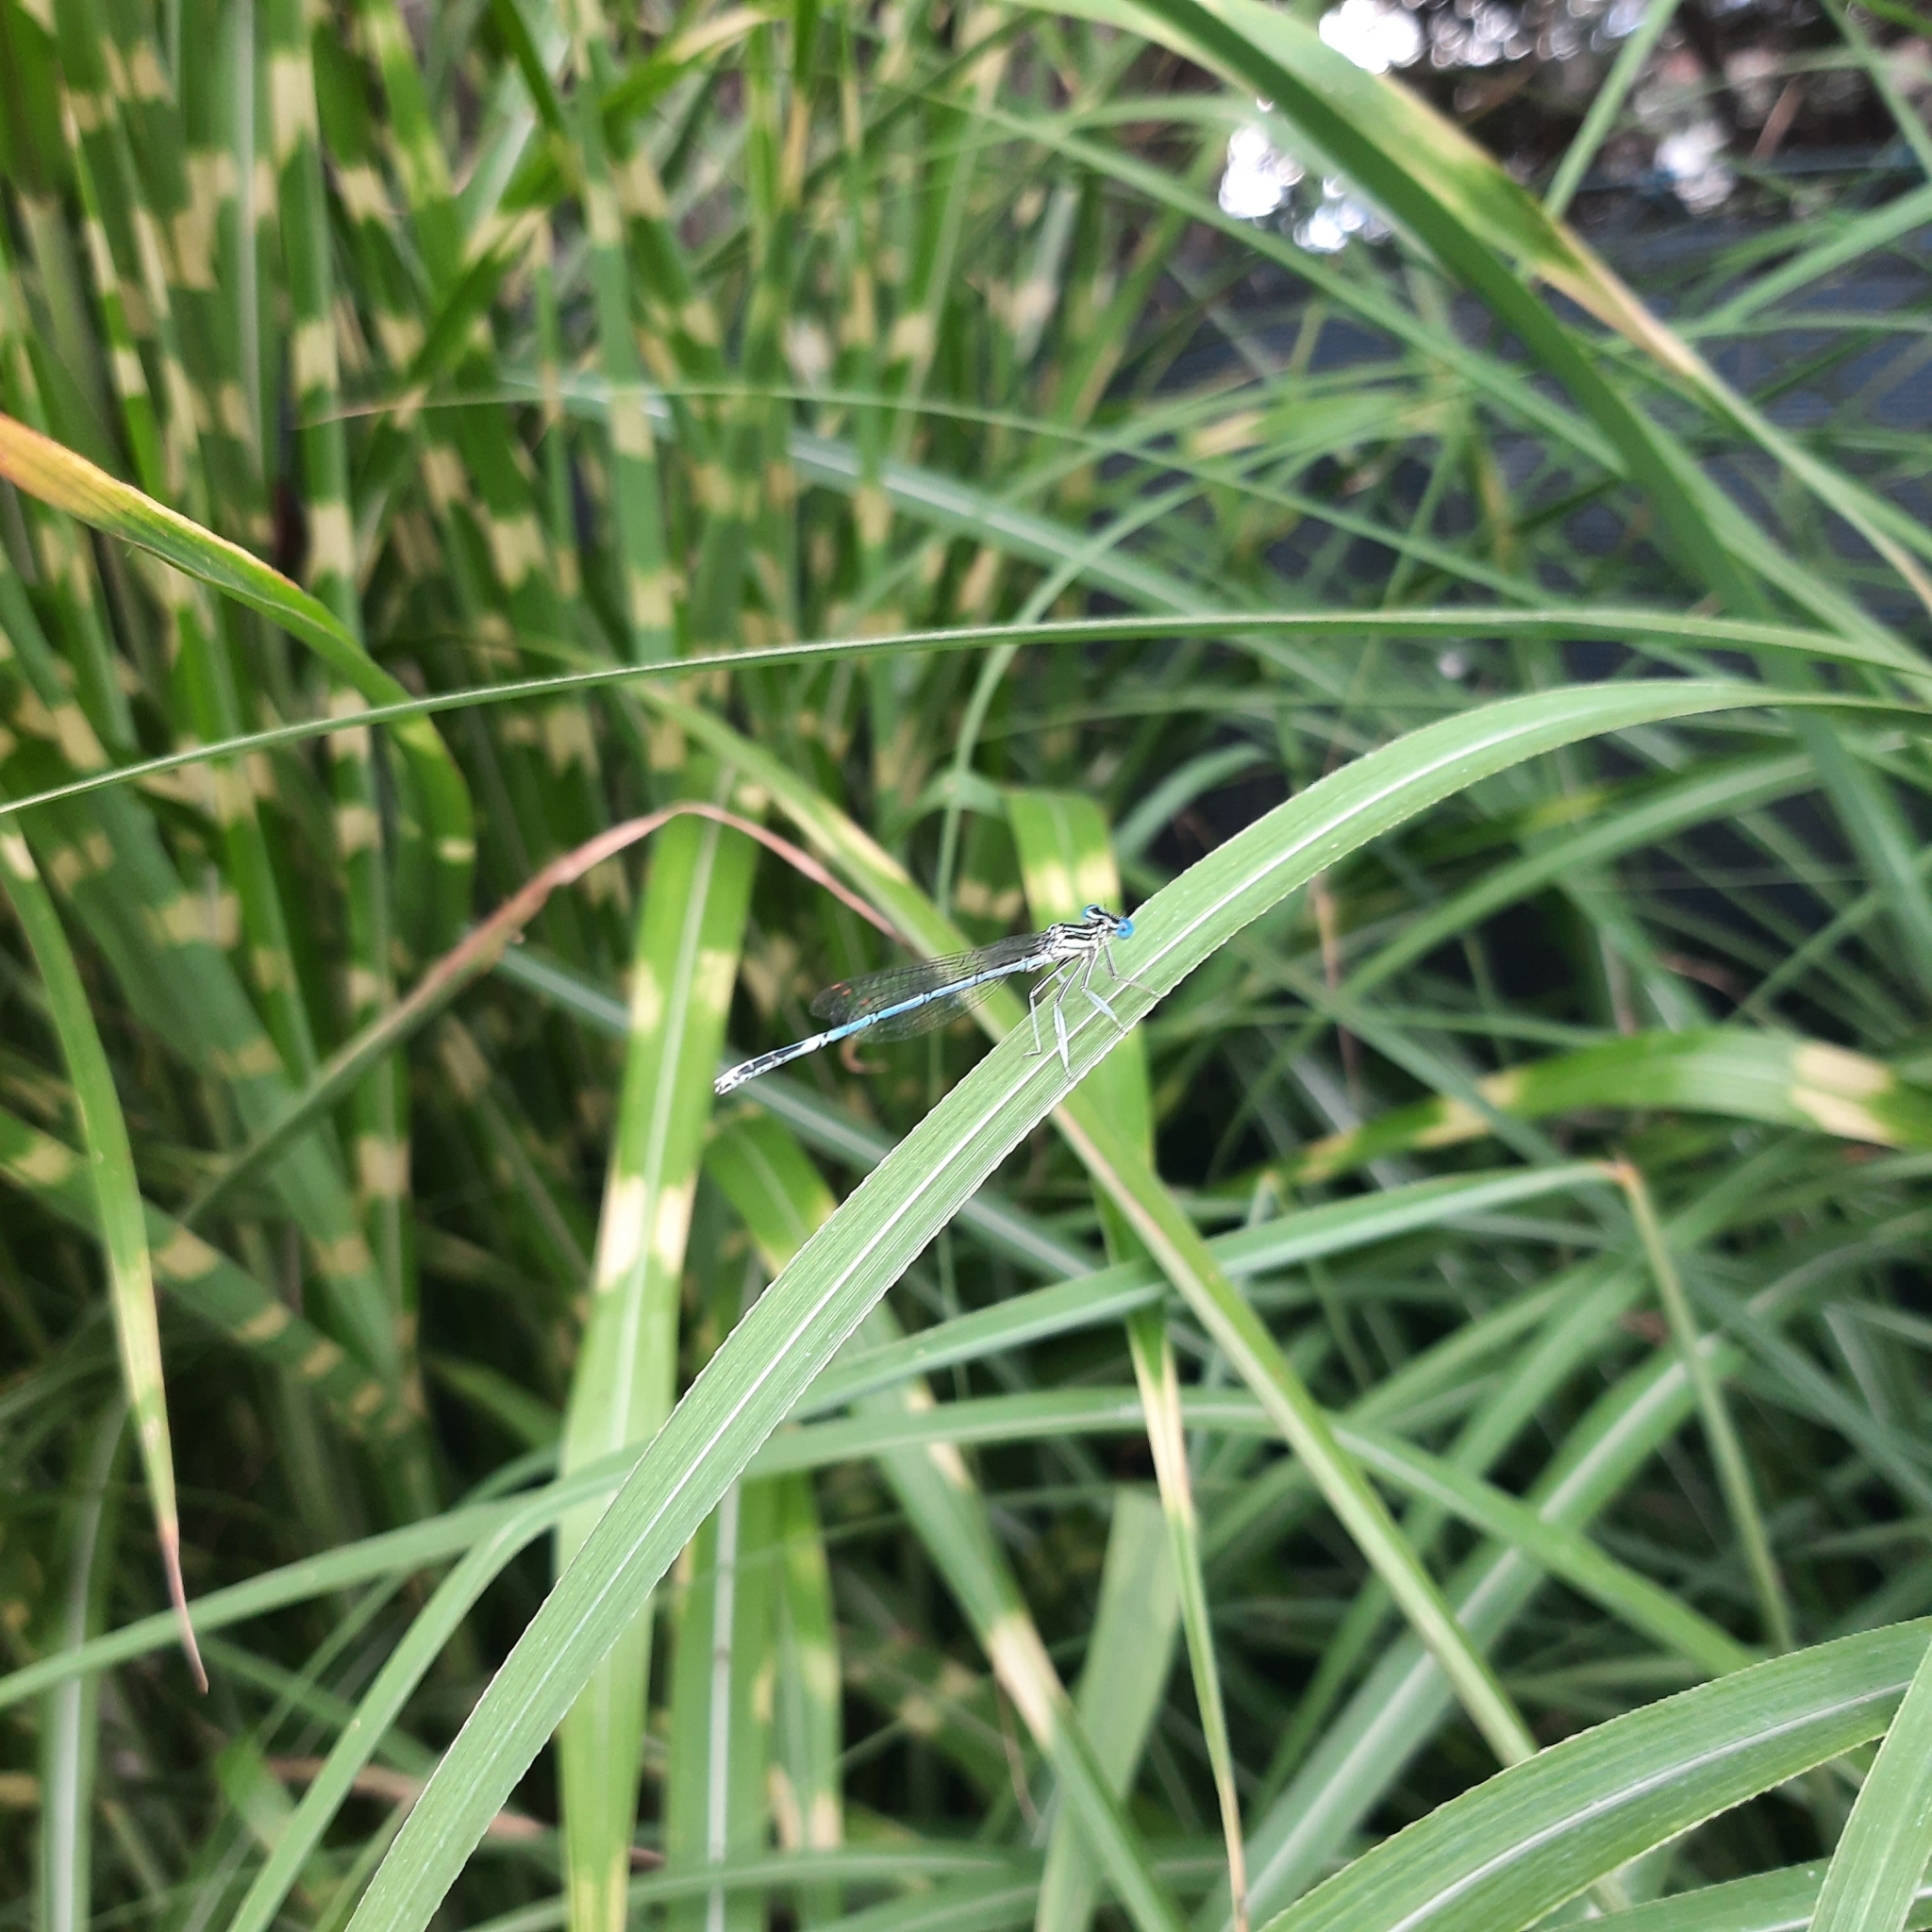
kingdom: Animalia
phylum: Arthropoda
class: Insecta
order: Odonata
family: Platycnemididae
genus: Platycnemis
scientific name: Platycnemis pennipes
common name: White-legged damselfly
